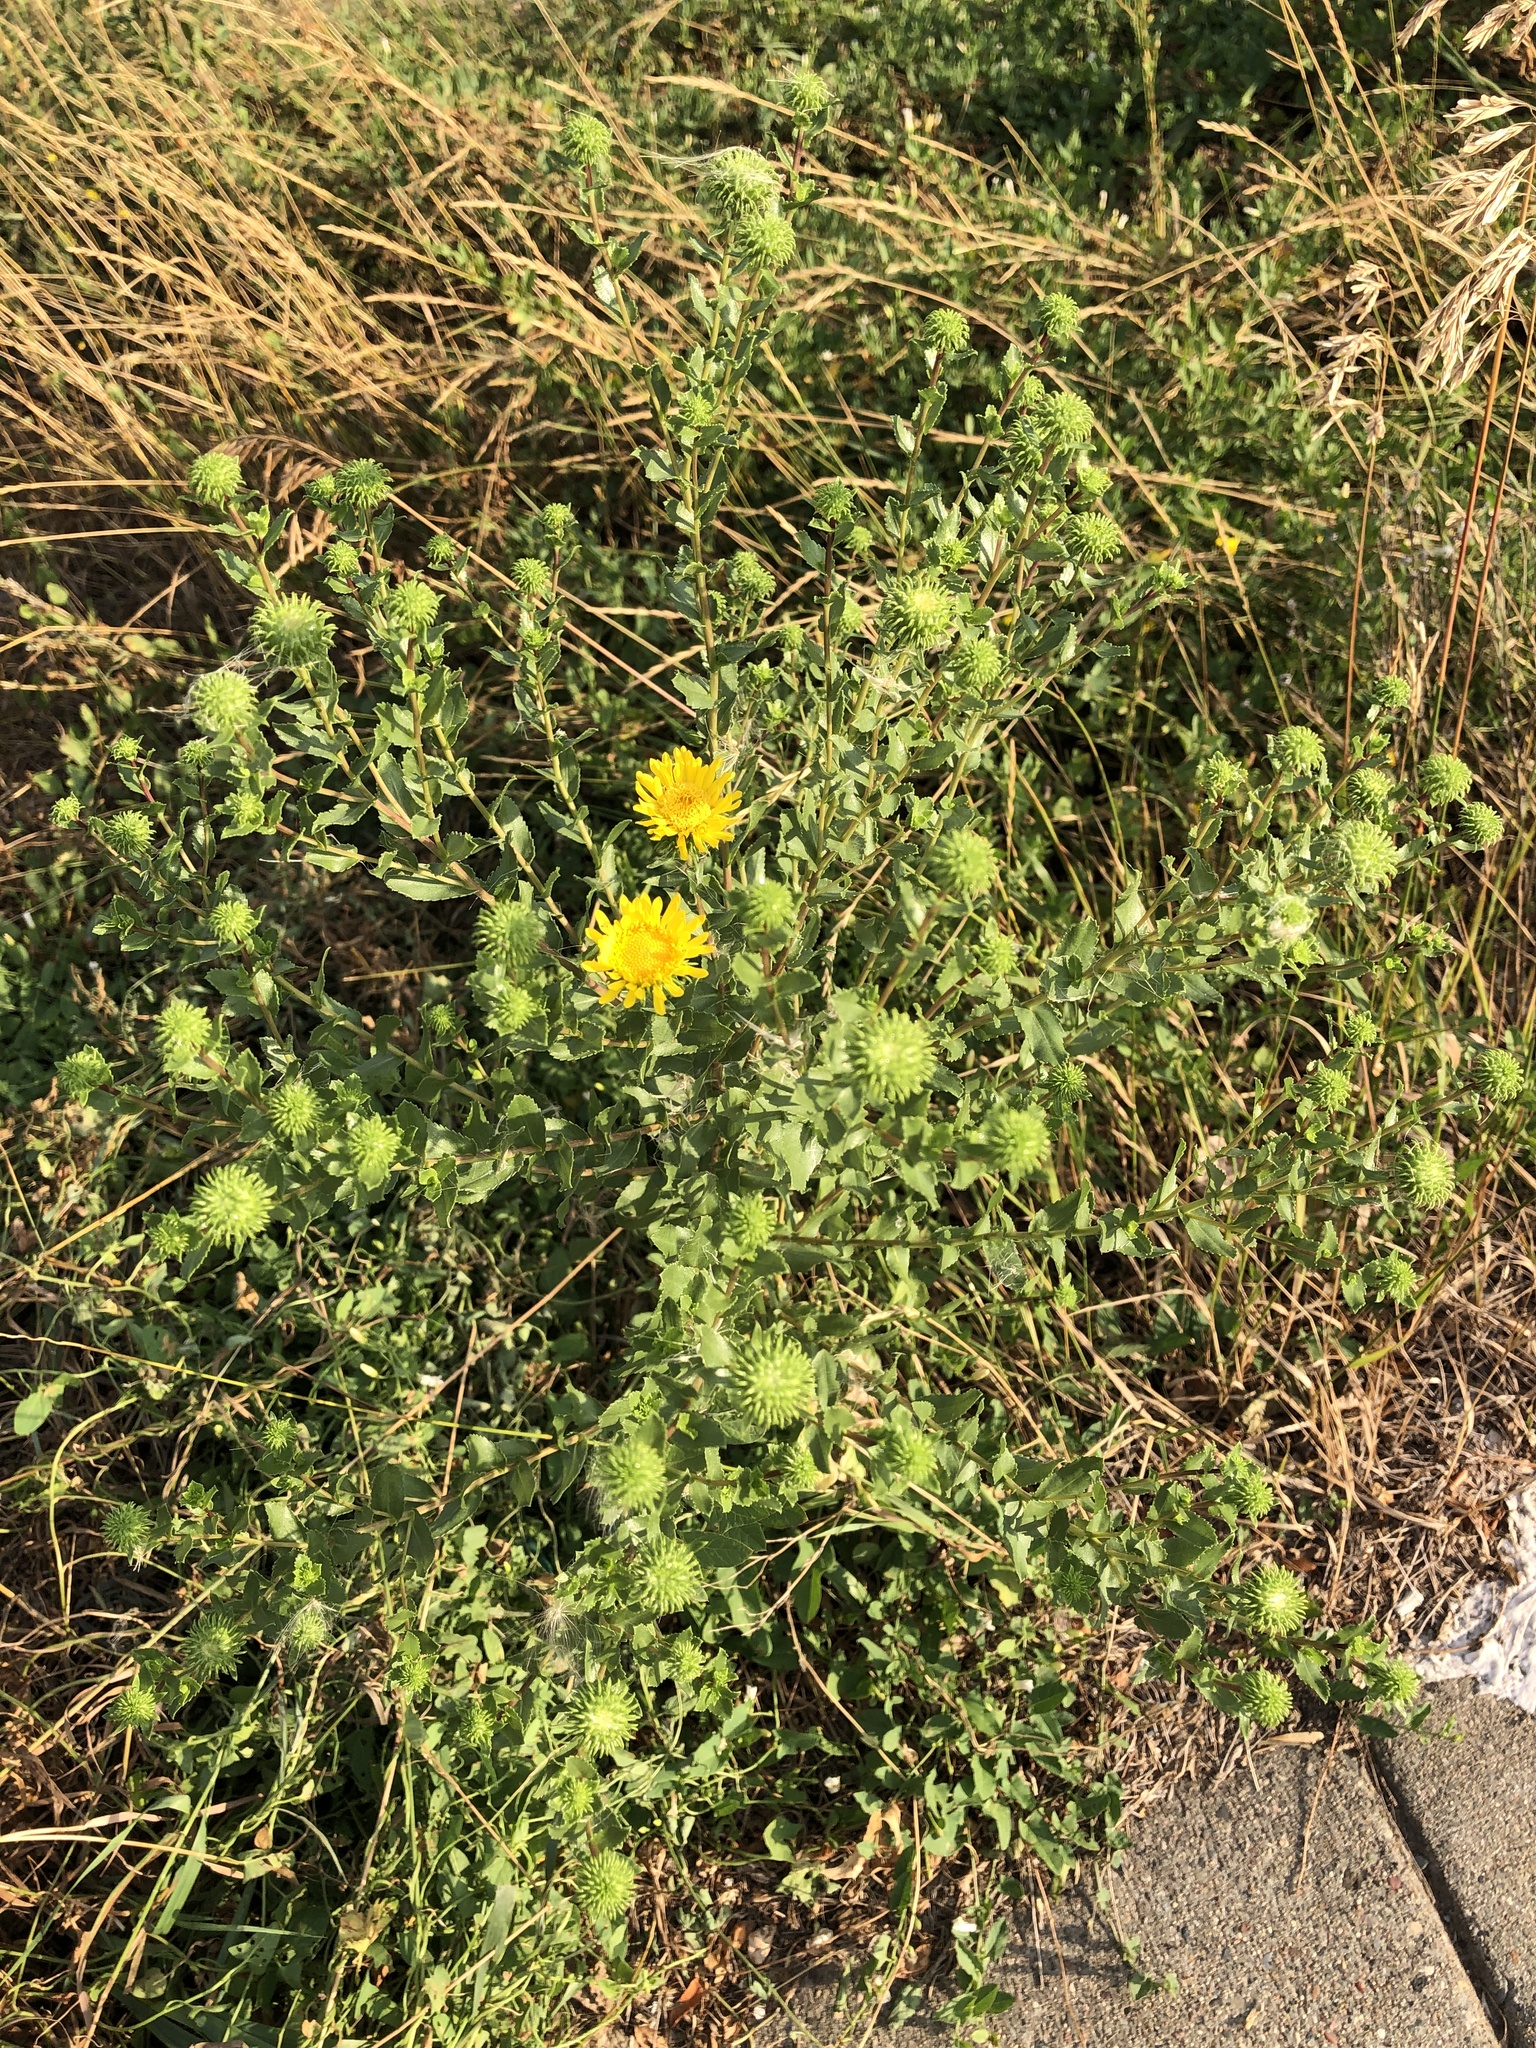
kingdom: Plantae
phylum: Tracheophyta
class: Magnoliopsida
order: Asterales
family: Asteraceae
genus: Grindelia
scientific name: Grindelia squarrosa
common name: Curly-cup gumweed
